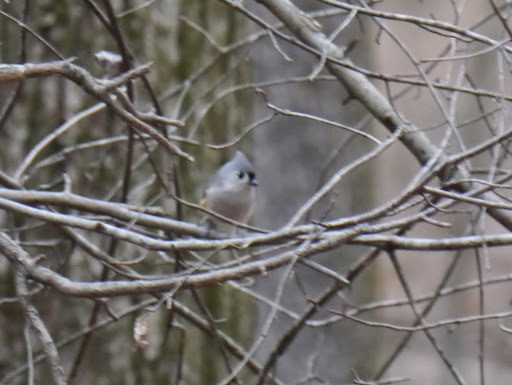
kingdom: Animalia
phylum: Chordata
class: Aves
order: Passeriformes
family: Paridae
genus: Baeolophus
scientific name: Baeolophus bicolor
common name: Tufted titmouse
